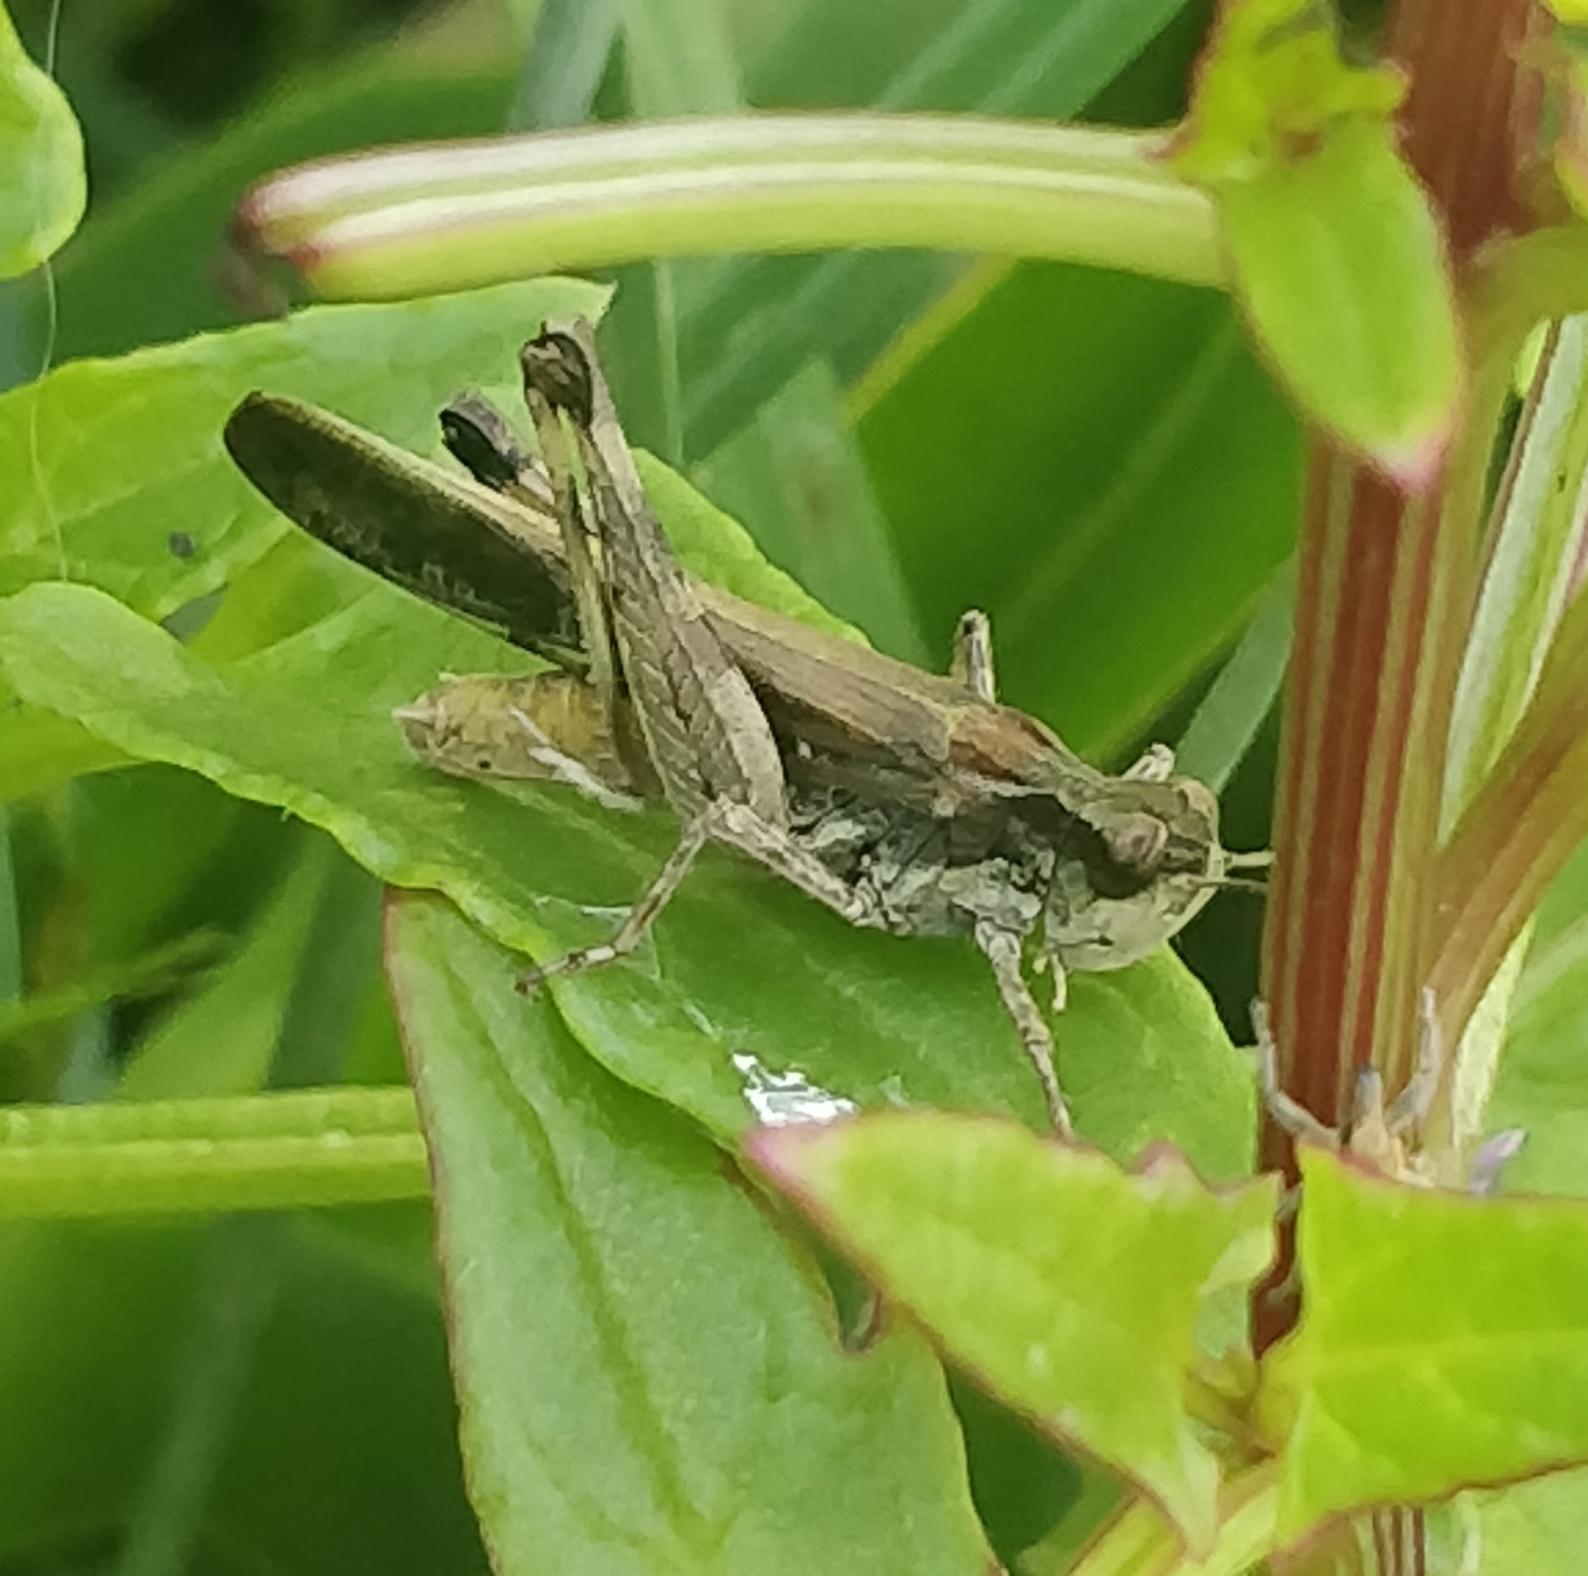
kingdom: Animalia
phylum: Arthropoda
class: Insecta
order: Orthoptera
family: Acrididae
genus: Aiolopus
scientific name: Aiolopus thalassinus
